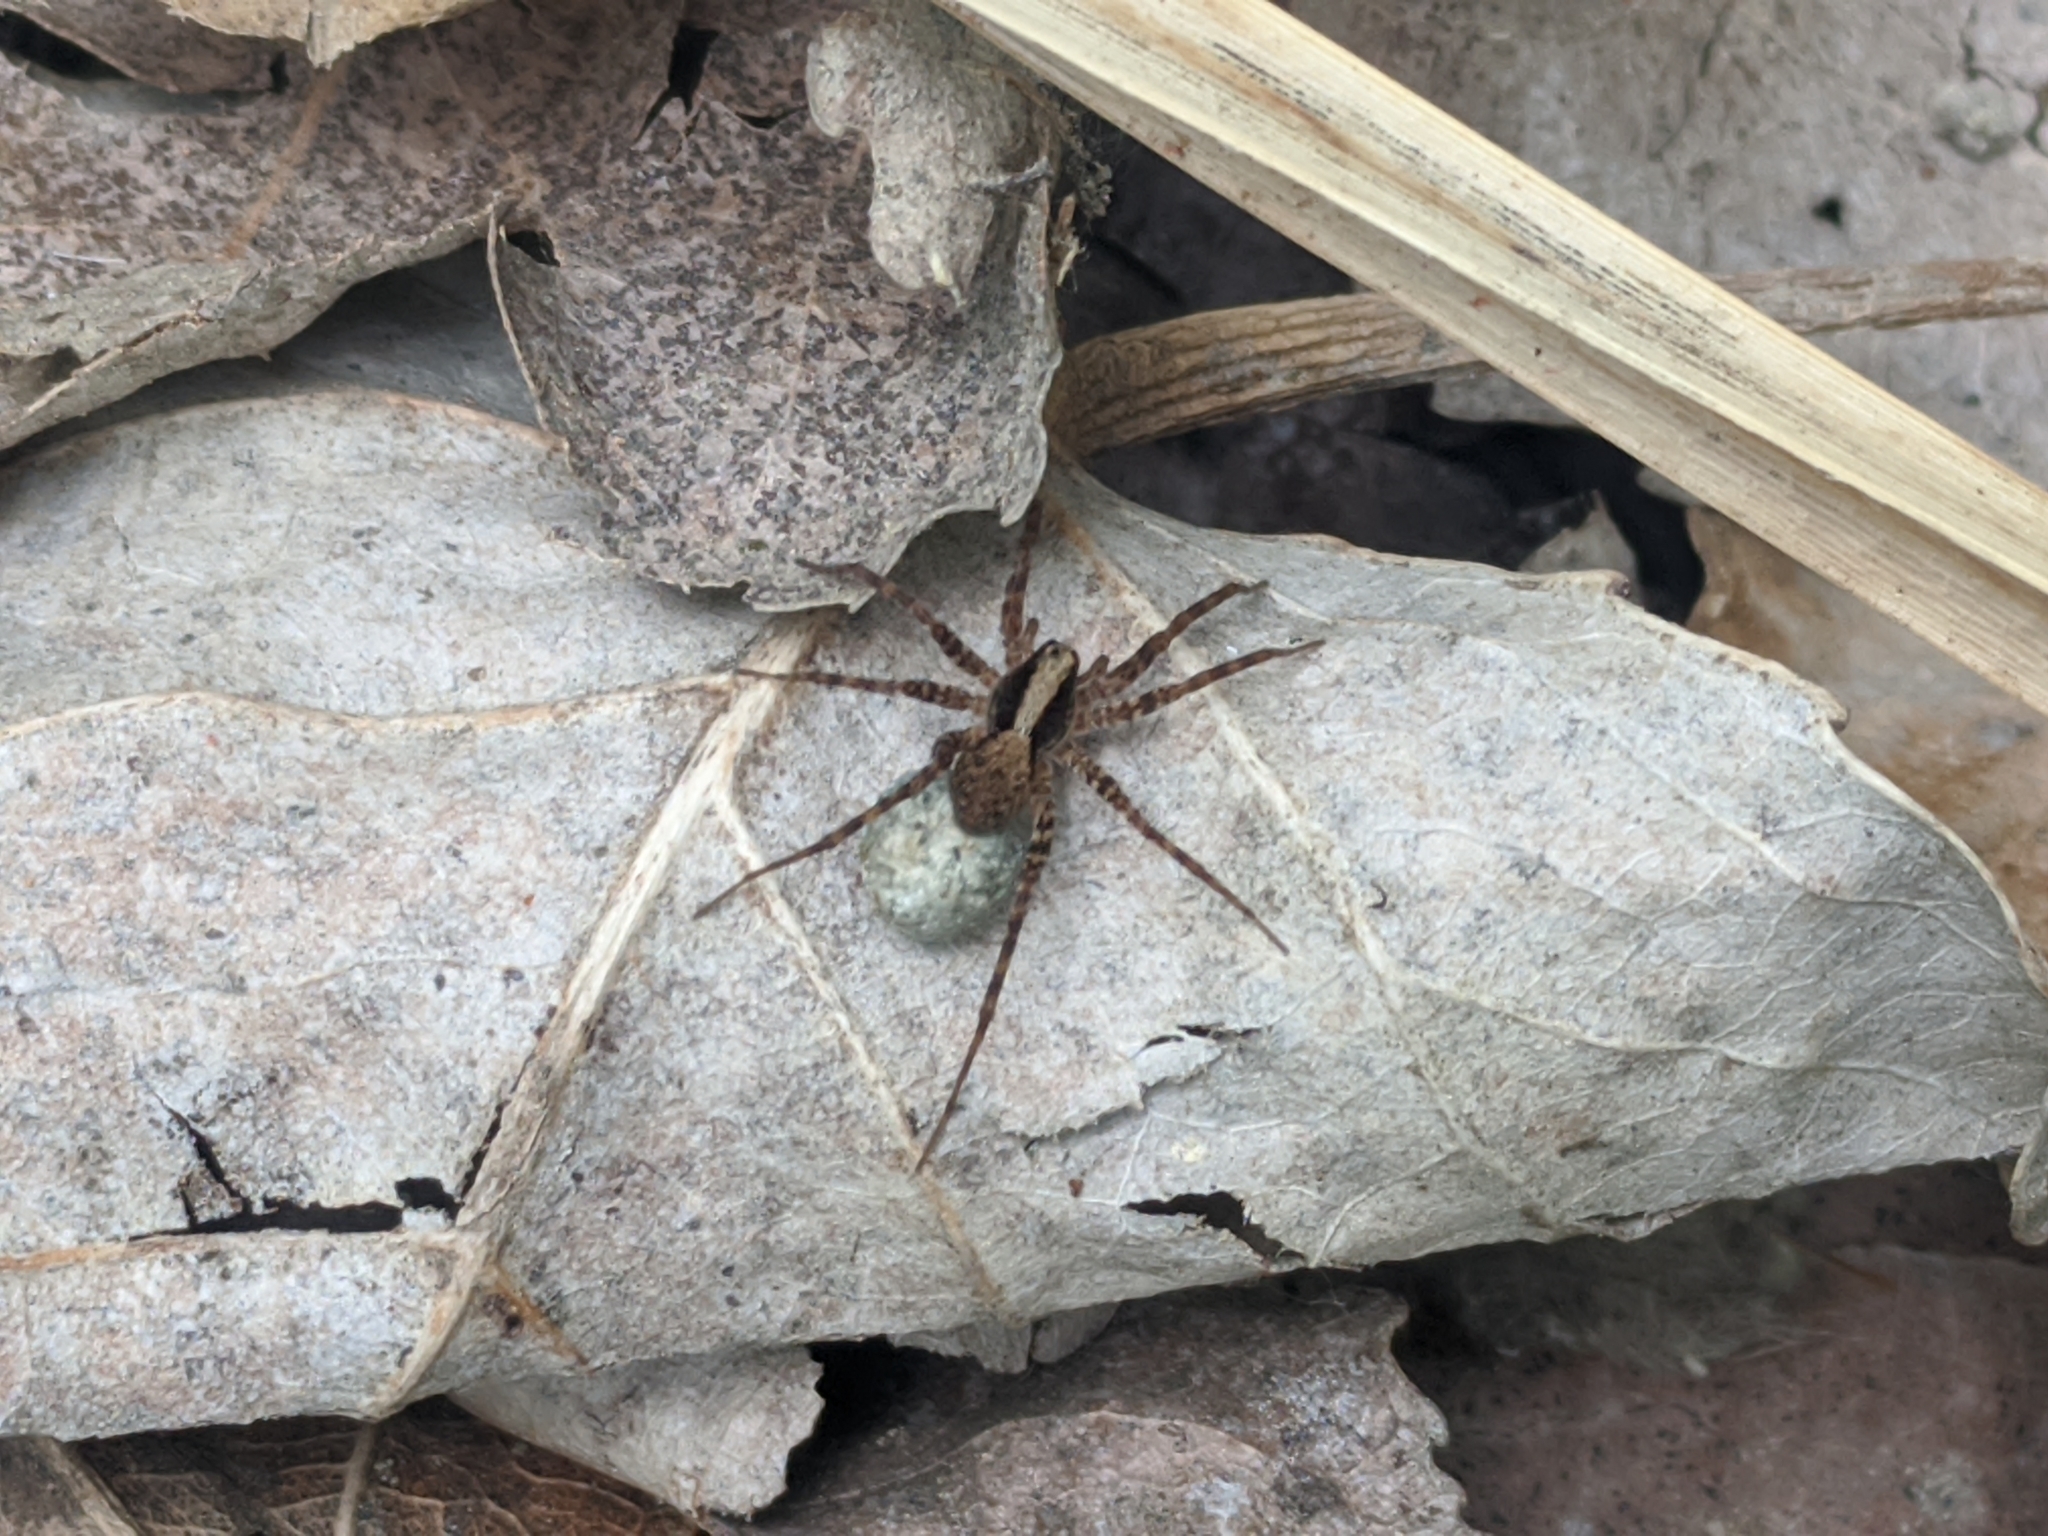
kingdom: Animalia
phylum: Arthropoda
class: Arachnida
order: Araneae
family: Lycosidae
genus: Pardosa
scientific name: Pardosa
